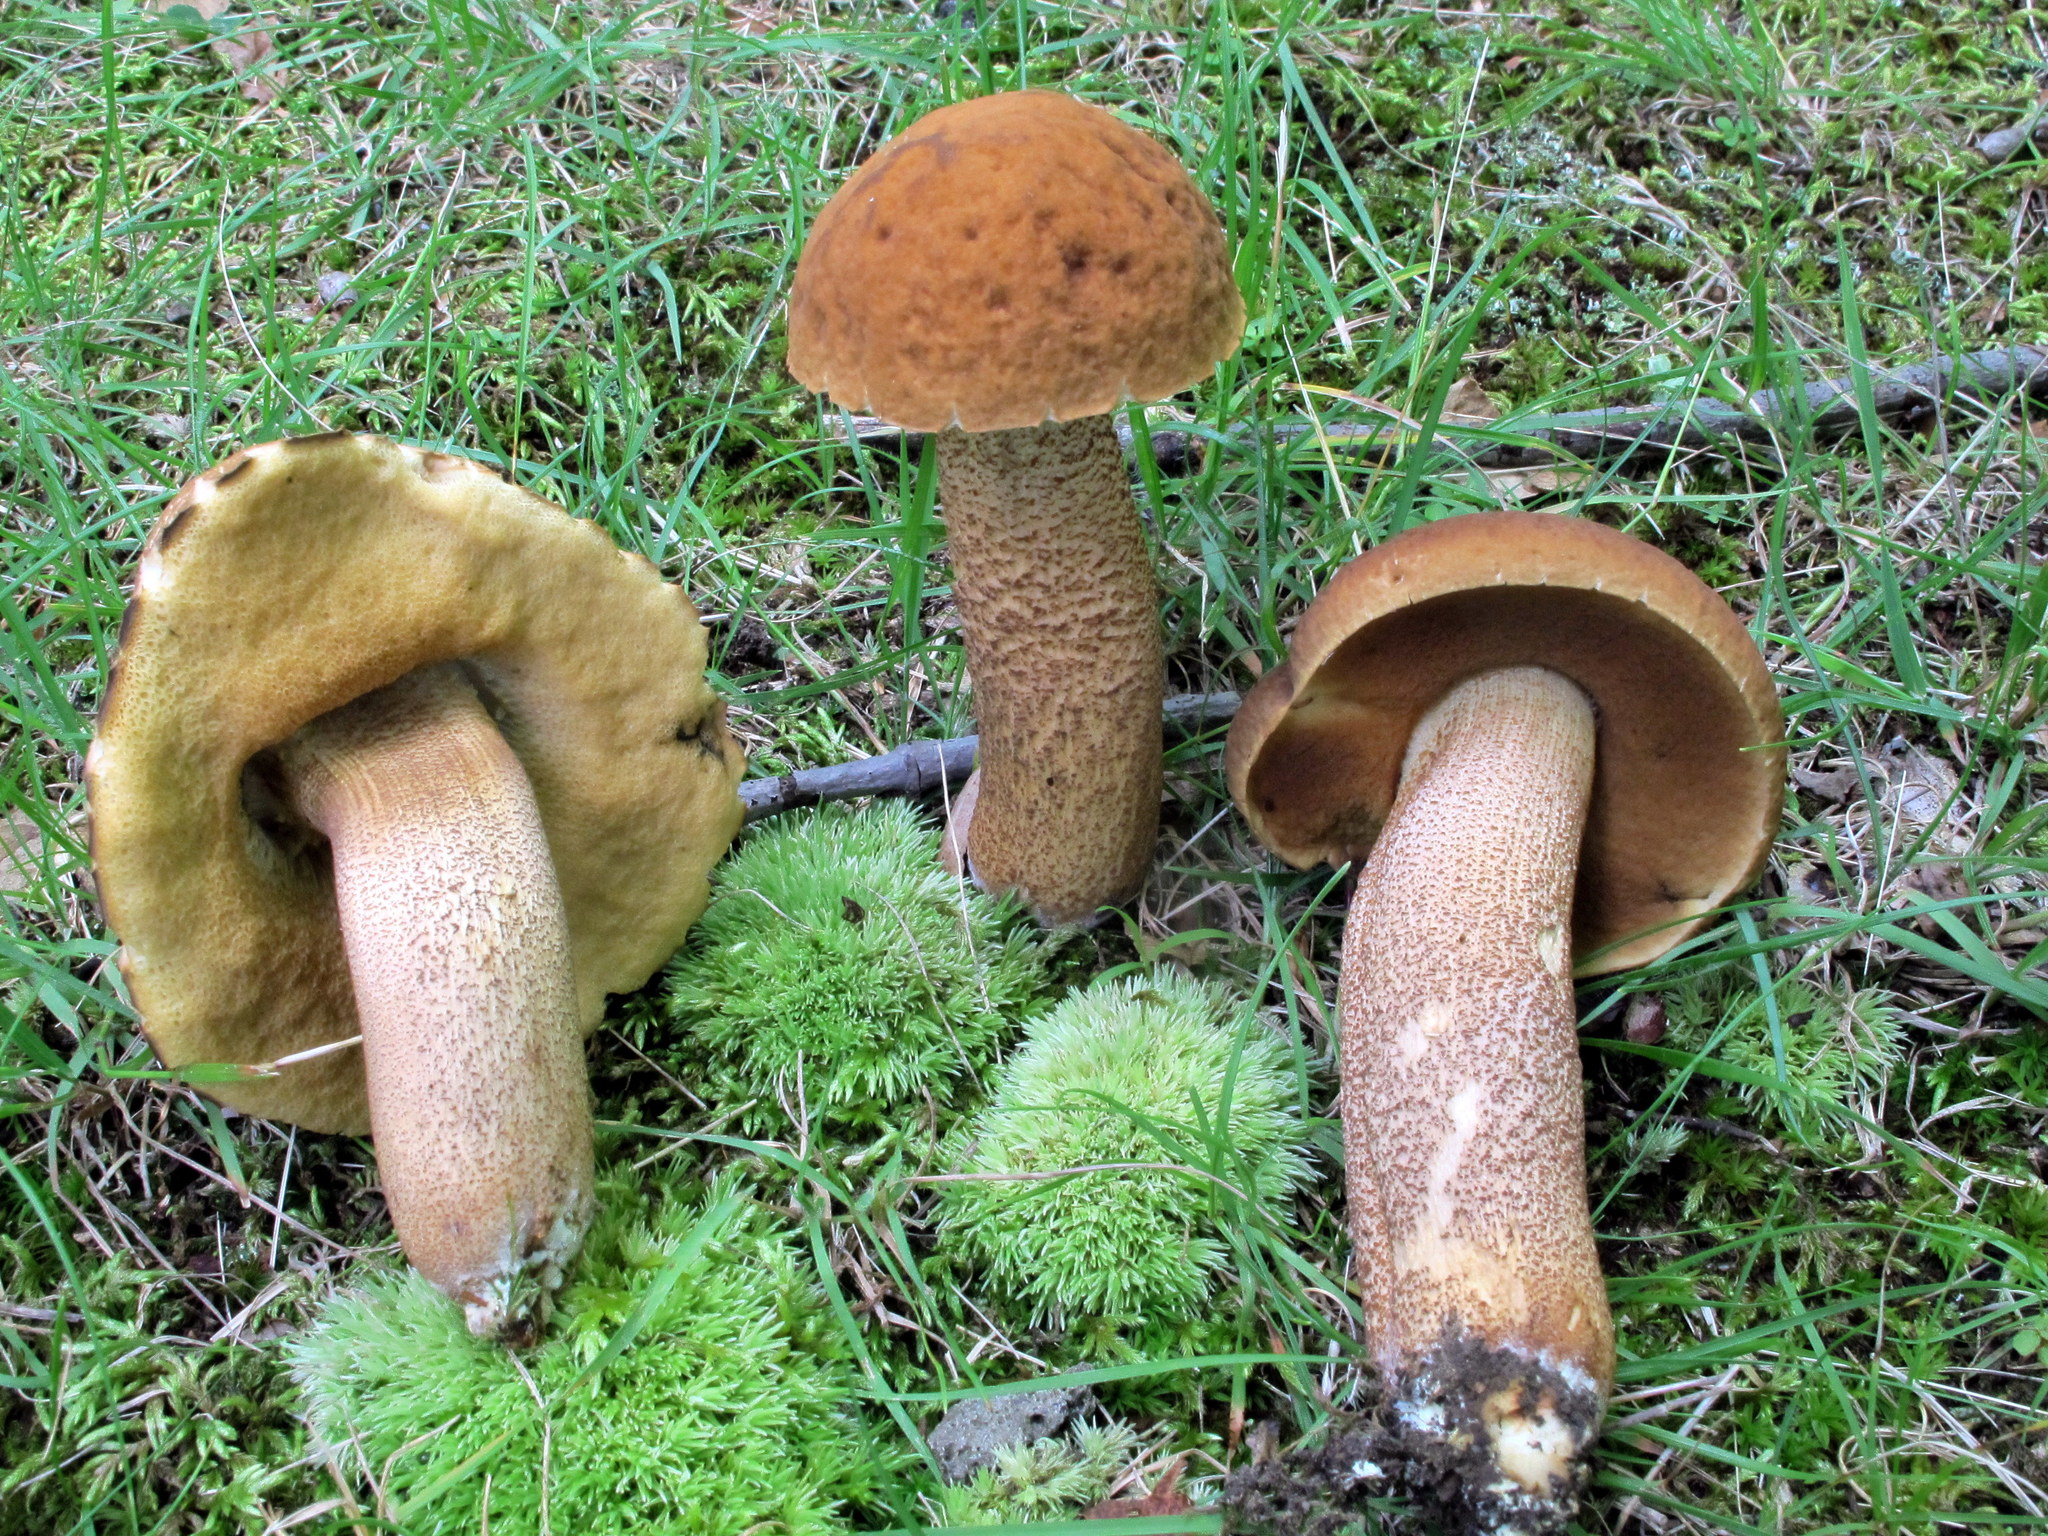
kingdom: Fungi
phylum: Basidiomycota
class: Agaricomycetes
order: Boletales
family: Boletaceae
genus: Leccinellum
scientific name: Leccinellum rugosiceps
